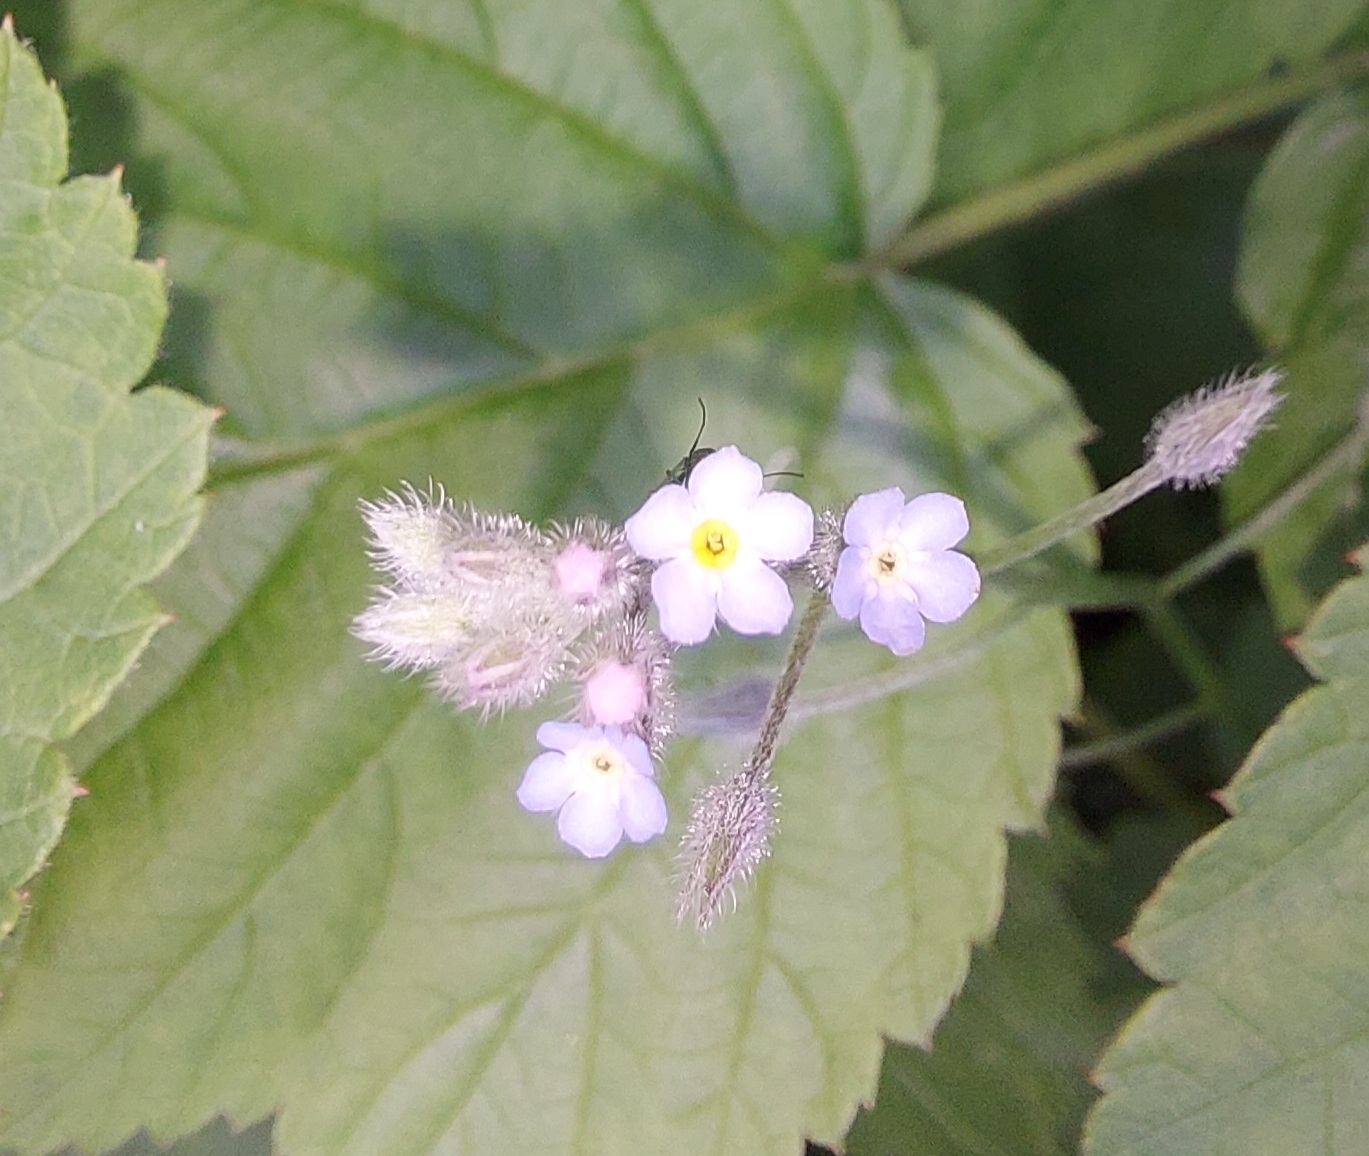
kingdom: Plantae
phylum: Tracheophyta
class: Magnoliopsida
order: Boraginales
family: Boraginaceae
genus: Myosotis
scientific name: Myosotis arvensis
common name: Field forget-me-not
